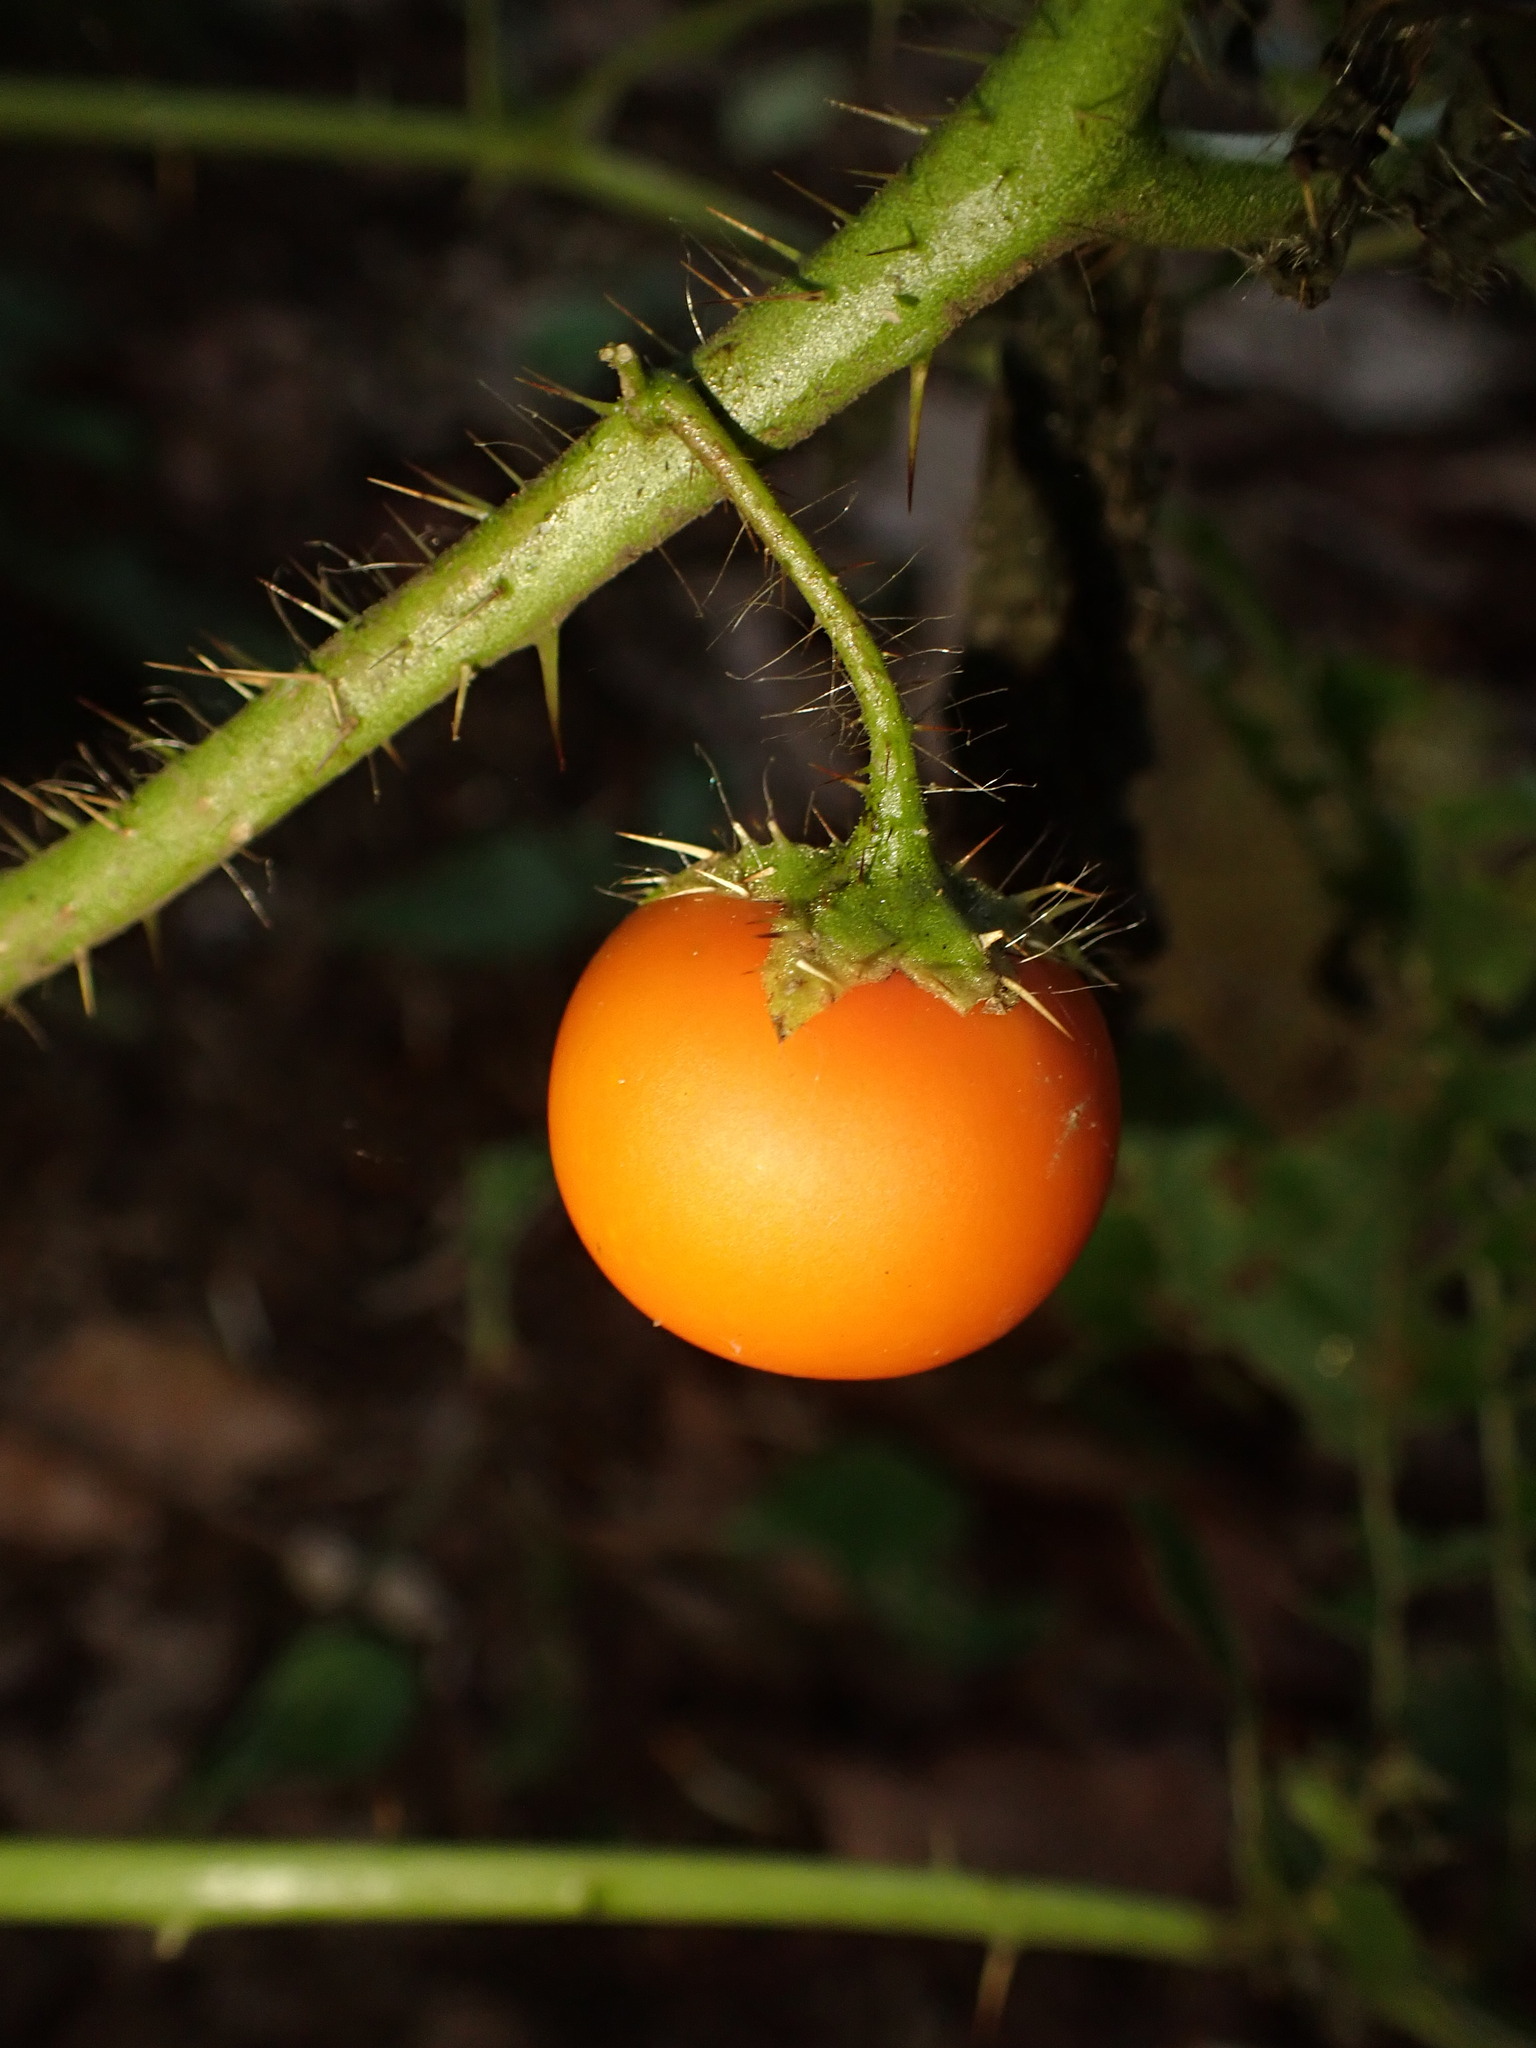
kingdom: Plantae
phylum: Tracheophyta
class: Magnoliopsida
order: Solanales
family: Solanaceae
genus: Solanum
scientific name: Solanum capsicoides
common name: Cockroach berry
